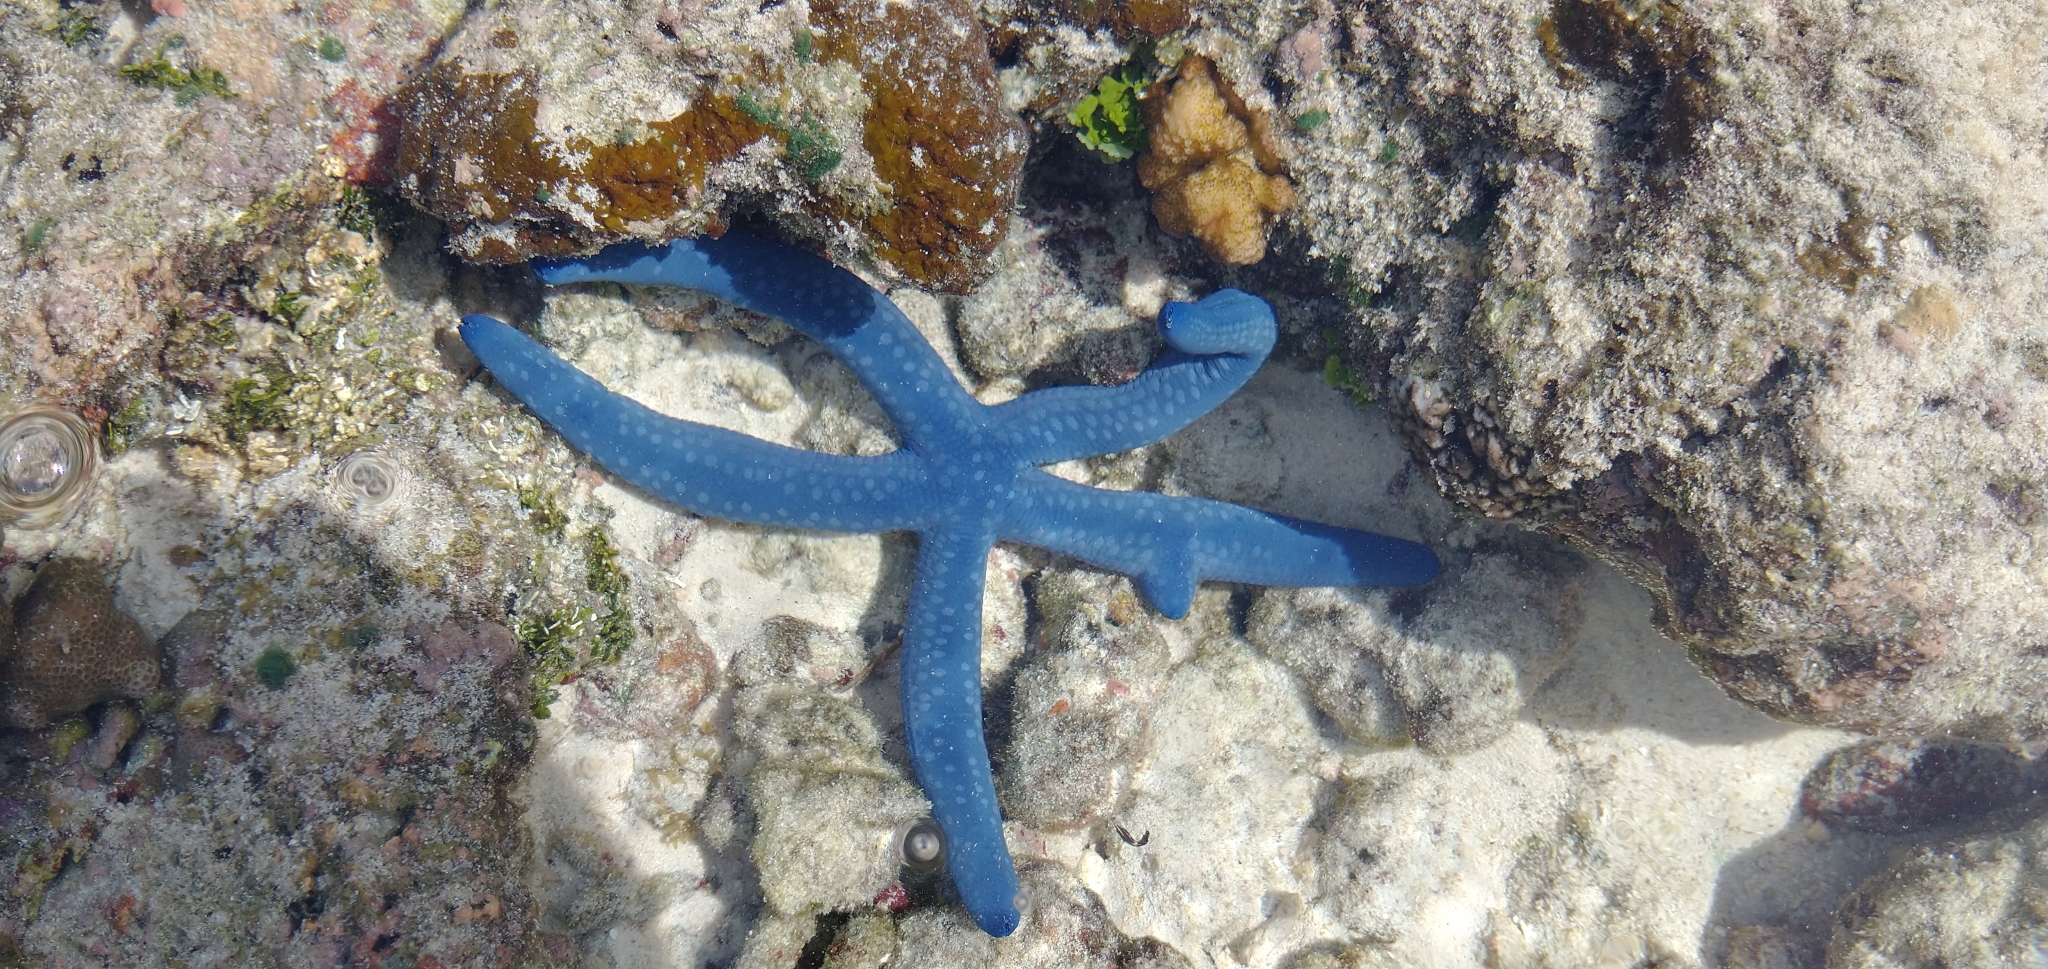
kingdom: Animalia
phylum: Echinodermata
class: Asteroidea
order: Valvatida
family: Ophidiasteridae
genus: Linckia
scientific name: Linckia laevigata
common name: Azure sea star
